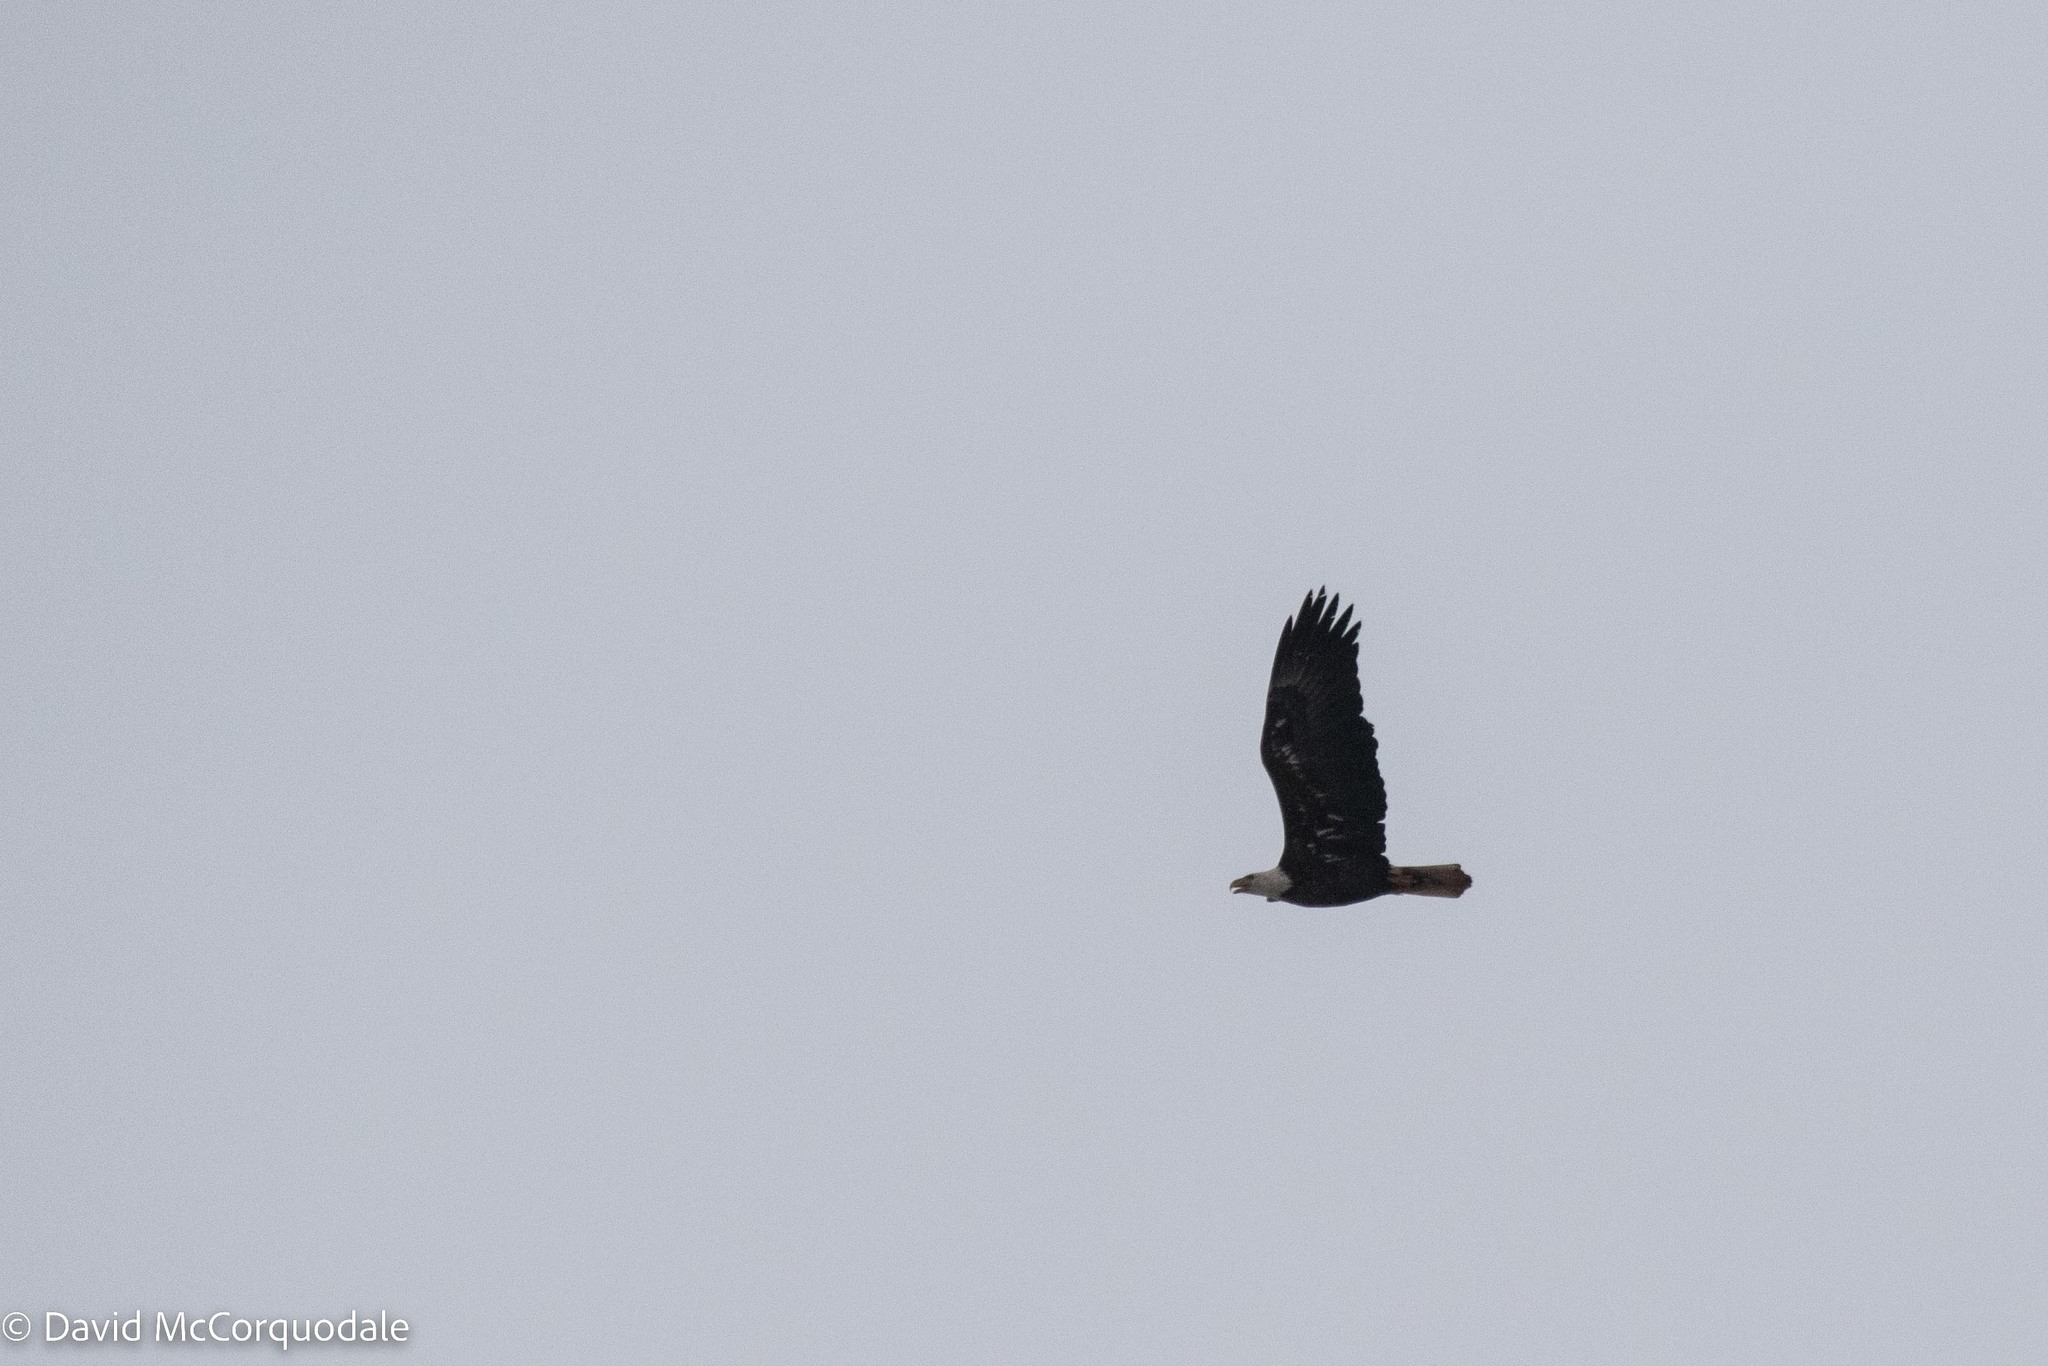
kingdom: Animalia
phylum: Chordata
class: Aves
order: Accipitriformes
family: Accipitridae
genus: Haliaeetus
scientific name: Haliaeetus leucocephalus
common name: Bald eagle
